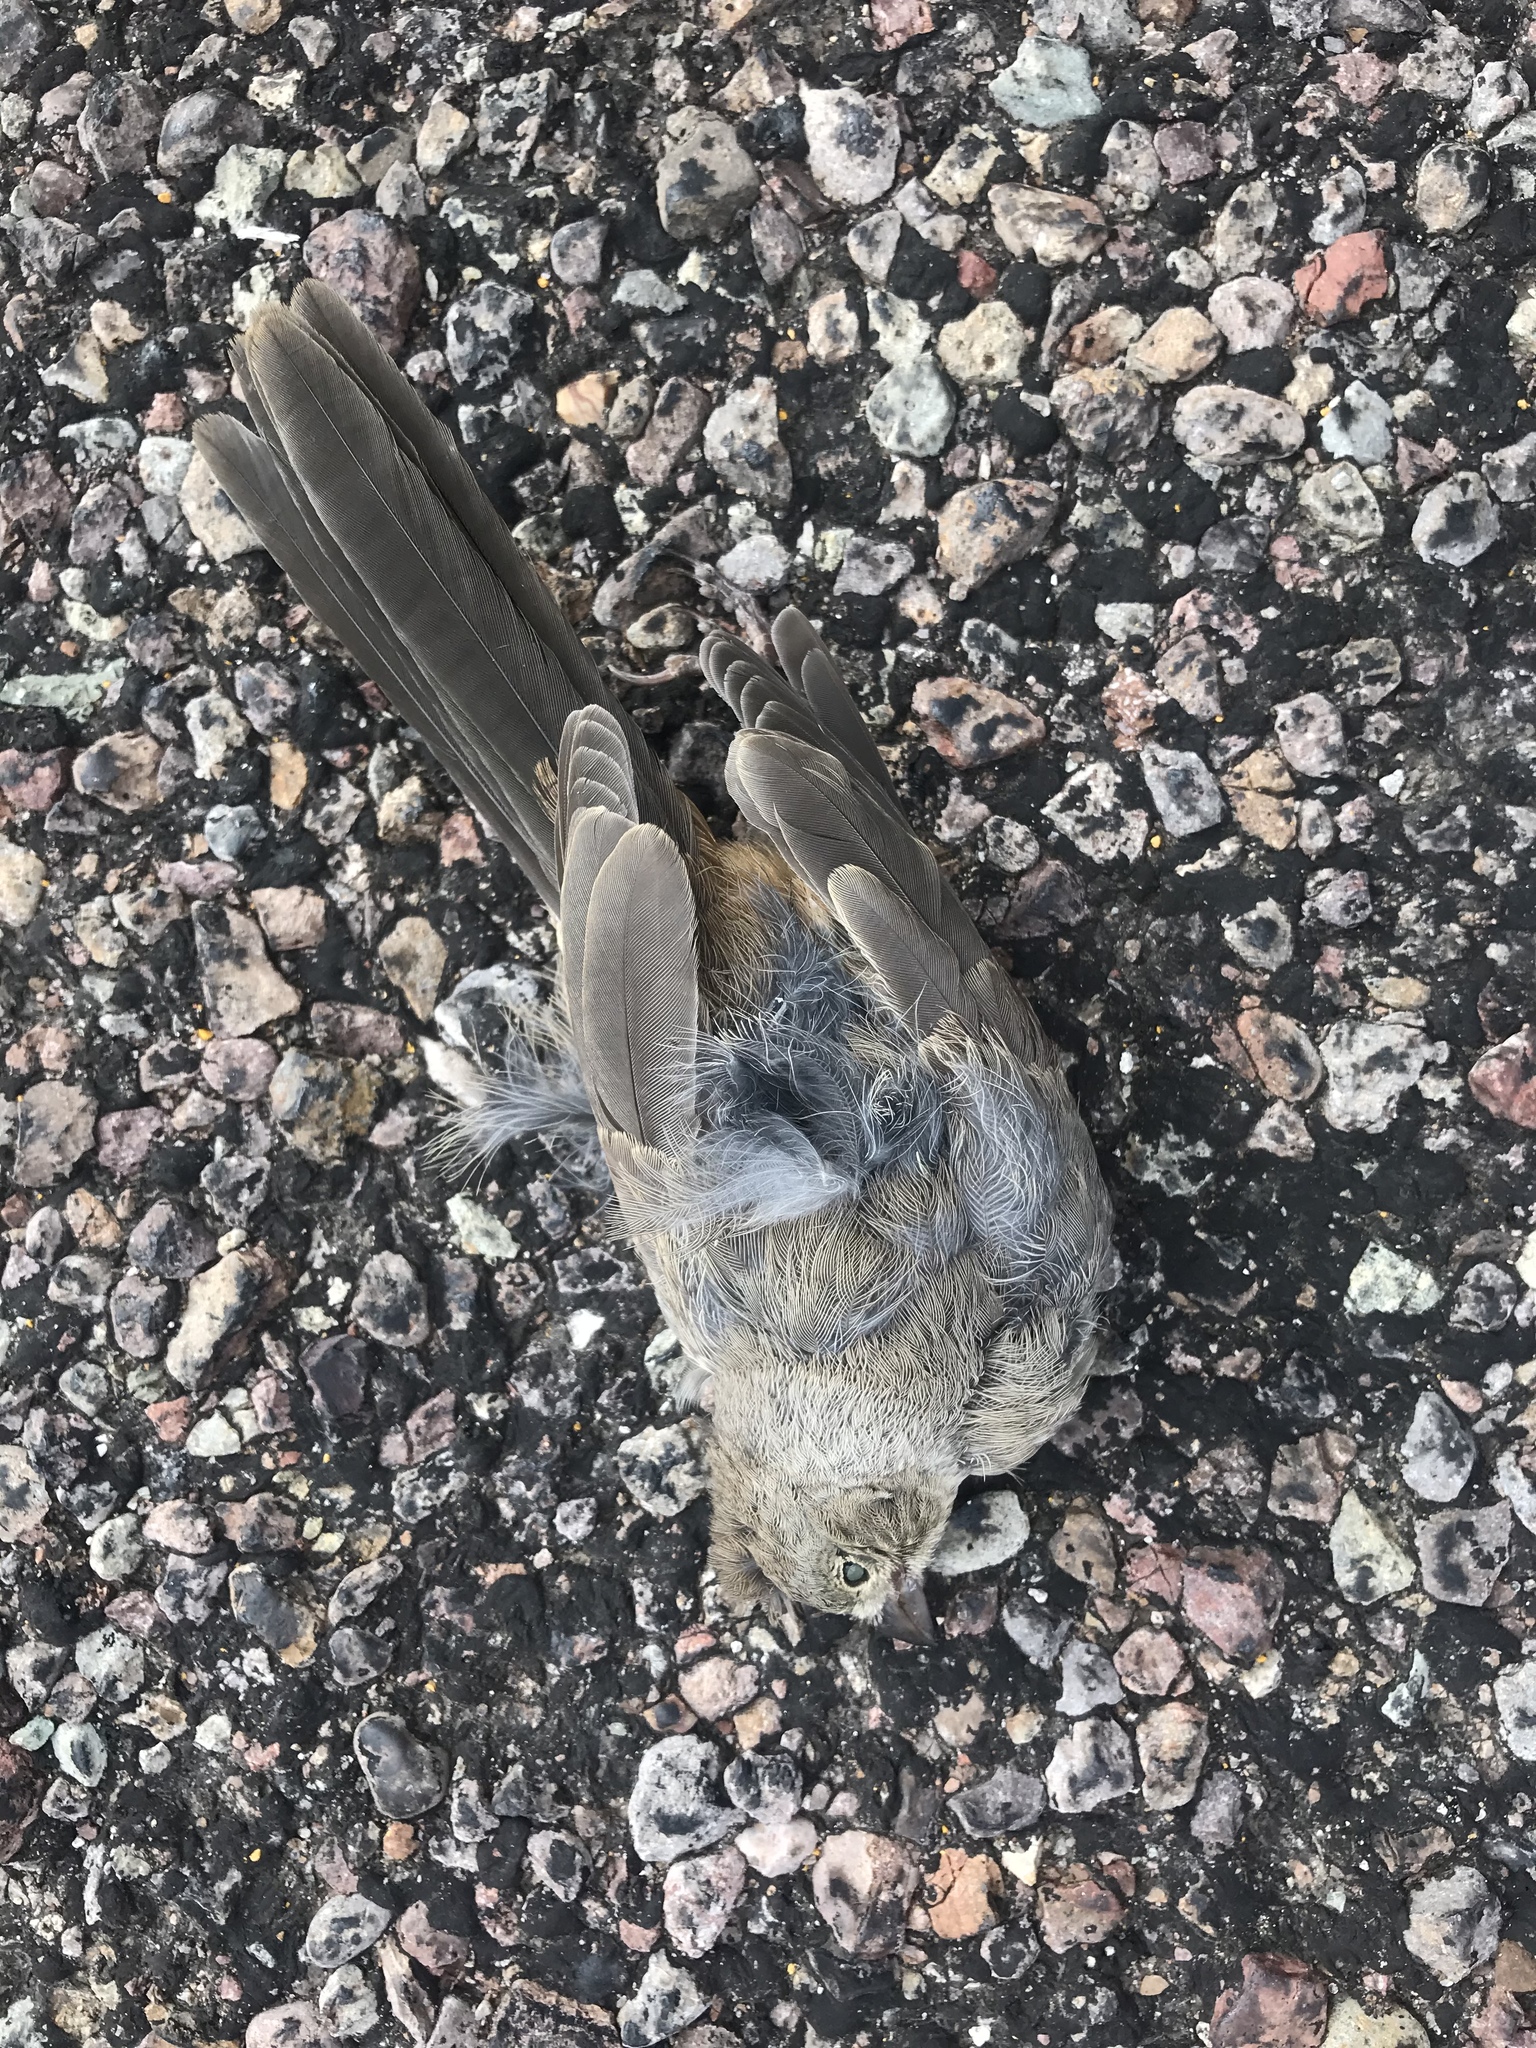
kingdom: Animalia
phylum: Chordata
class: Aves
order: Passeriformes
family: Passerellidae
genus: Melozone
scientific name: Melozone fusca
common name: Canyon towhee
